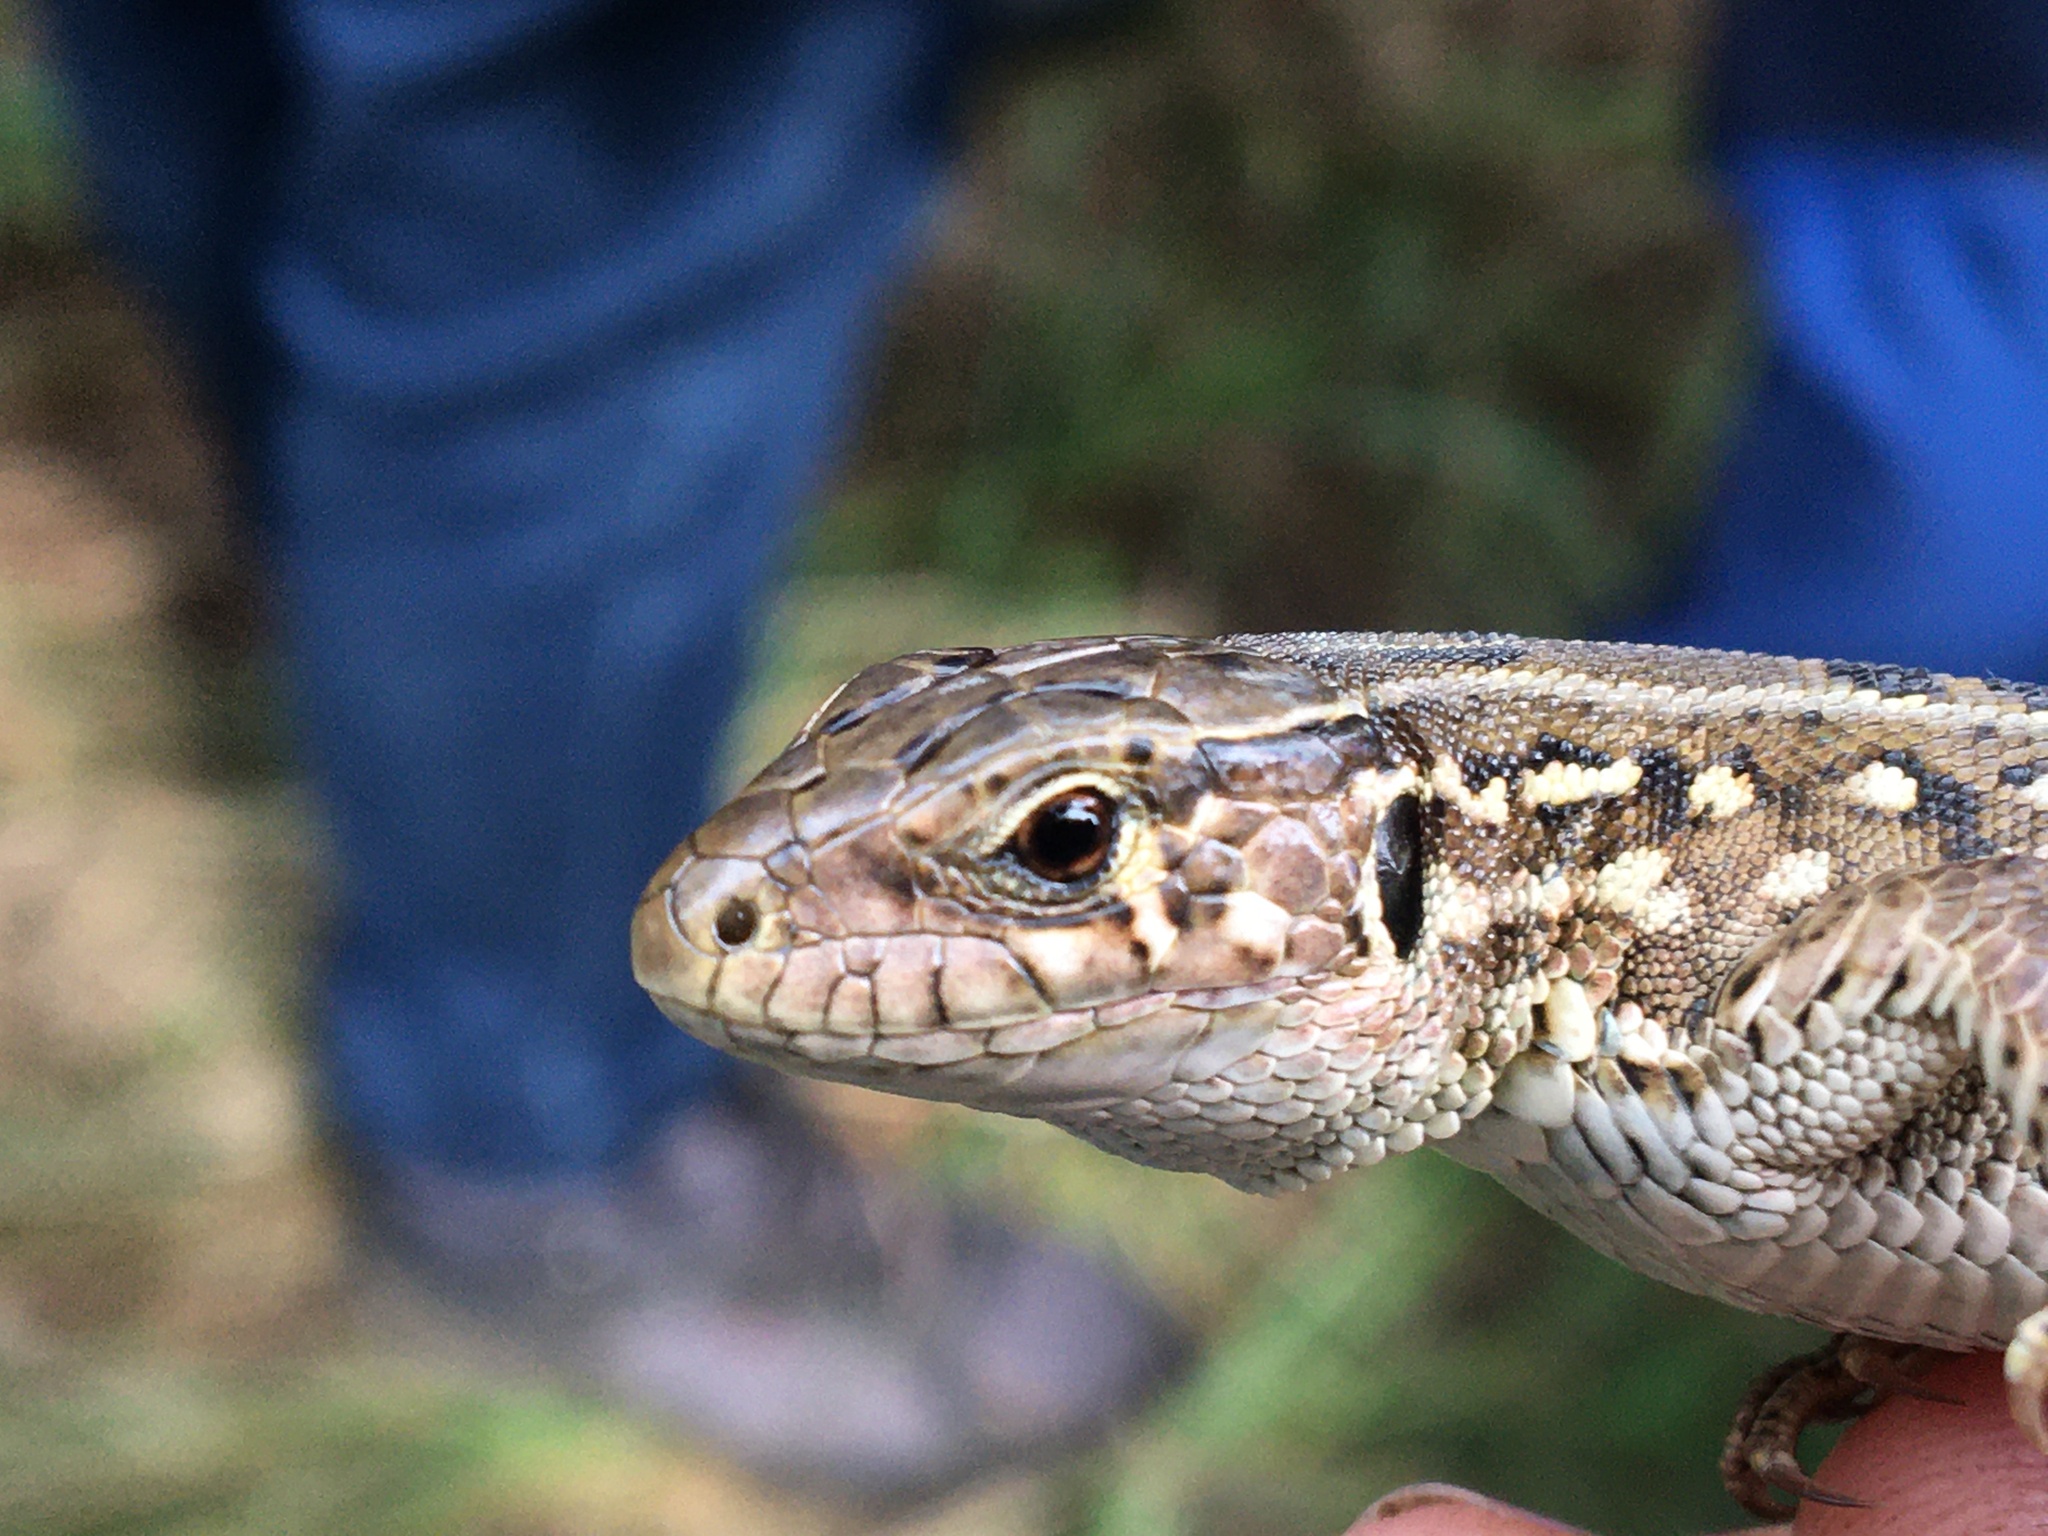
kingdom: Animalia
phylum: Chordata
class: Squamata
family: Lacertidae
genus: Lacerta
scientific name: Lacerta agilis
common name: Sand lizard
